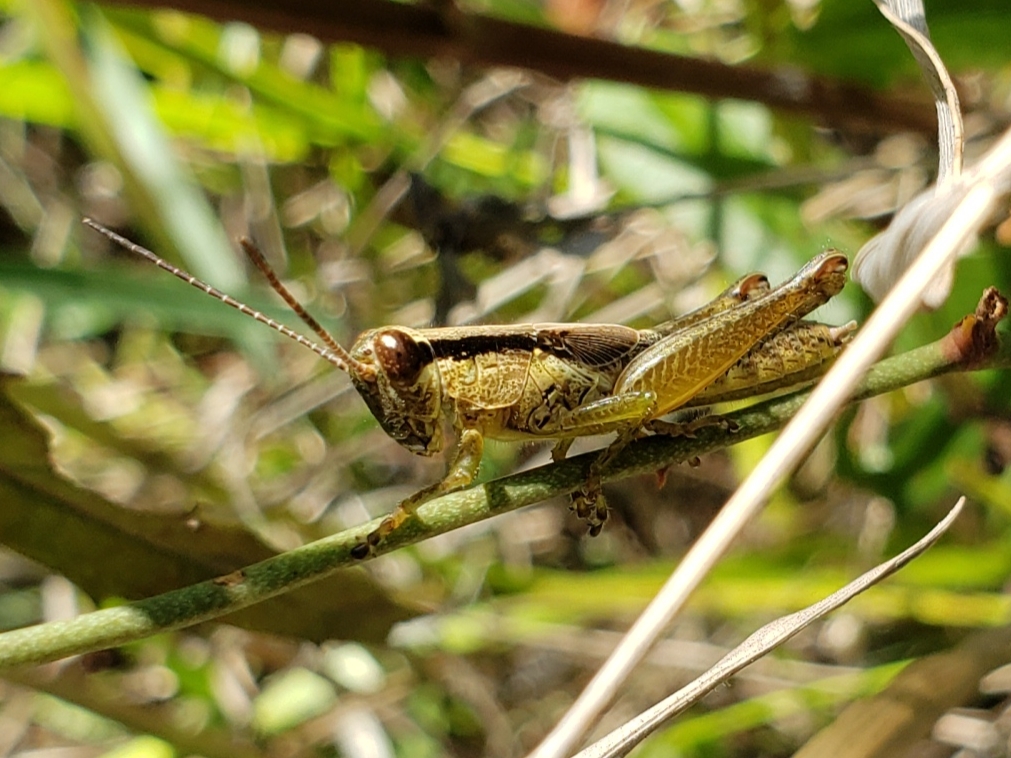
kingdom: Animalia
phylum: Arthropoda
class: Insecta
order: Orthoptera
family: Acrididae
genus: Paroxya
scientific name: Paroxya clavuligera
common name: Olive-green swamp grasshopper
